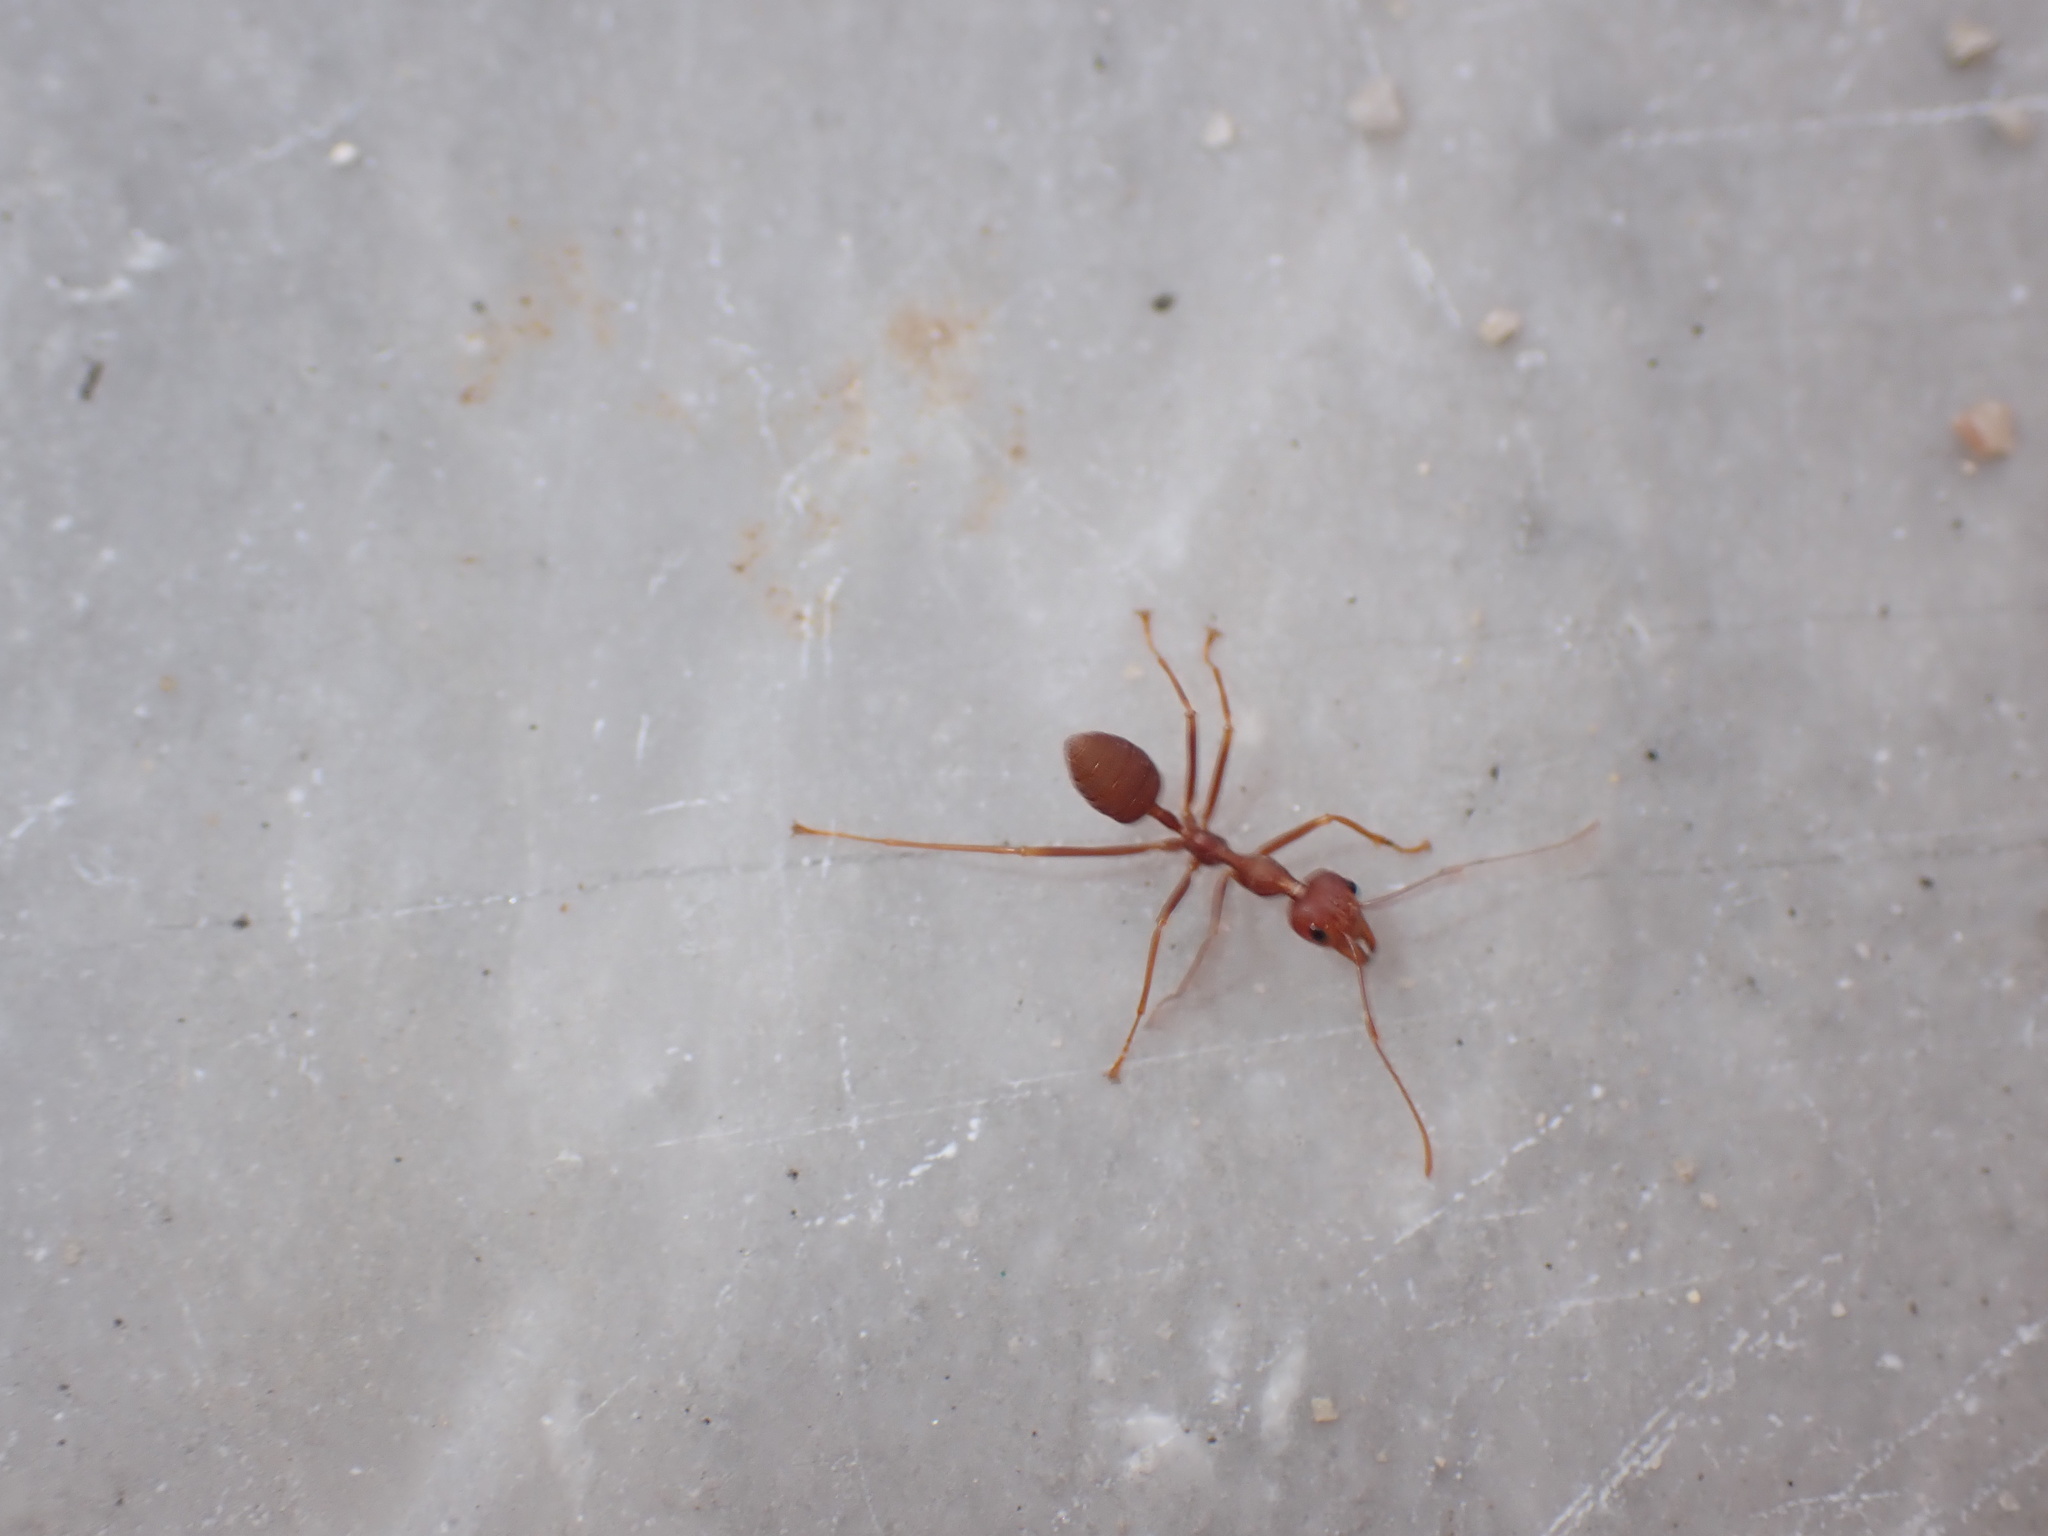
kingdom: Animalia
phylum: Arthropoda
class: Insecta
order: Hymenoptera
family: Formicidae
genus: Oecophylla
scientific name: Oecophylla smaragdina
